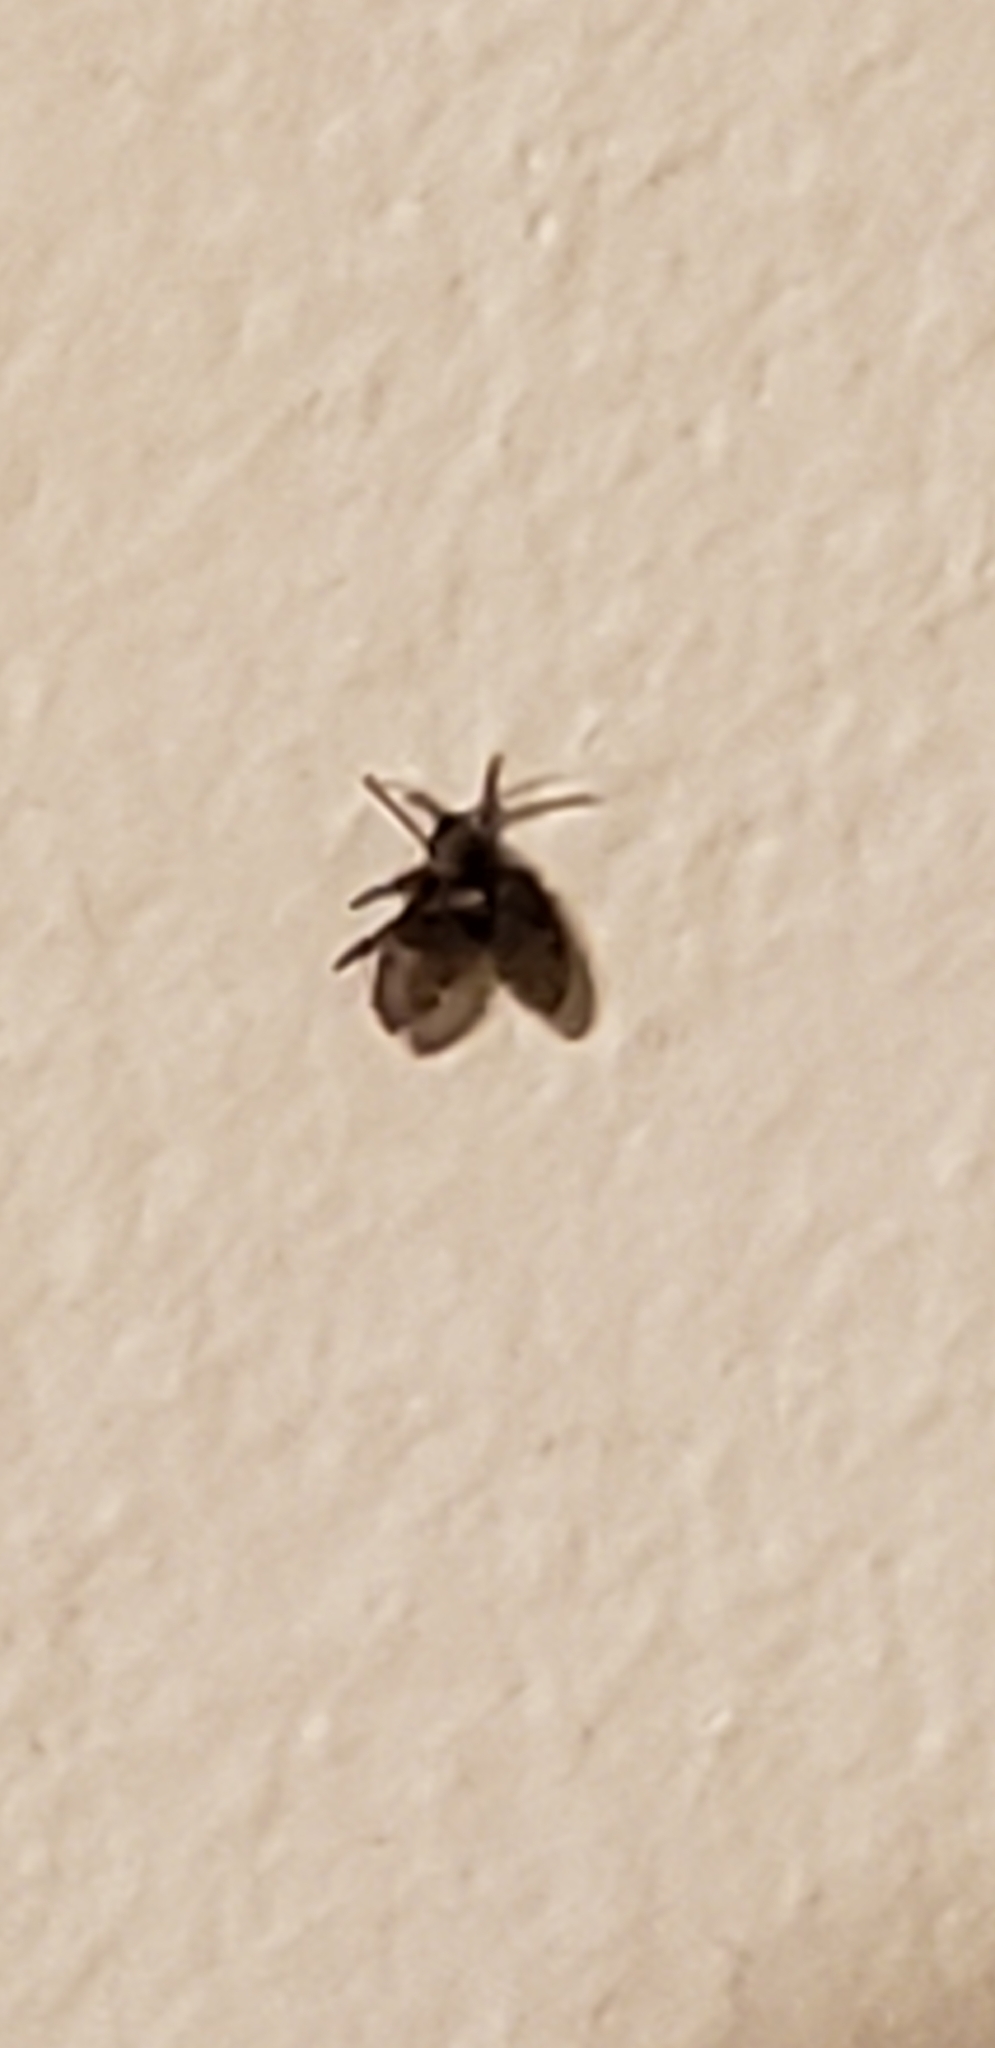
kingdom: Animalia
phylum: Arthropoda
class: Insecta
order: Diptera
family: Psychodidae
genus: Clogmia
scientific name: Clogmia albipunctatus
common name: White-spotted moth fly
